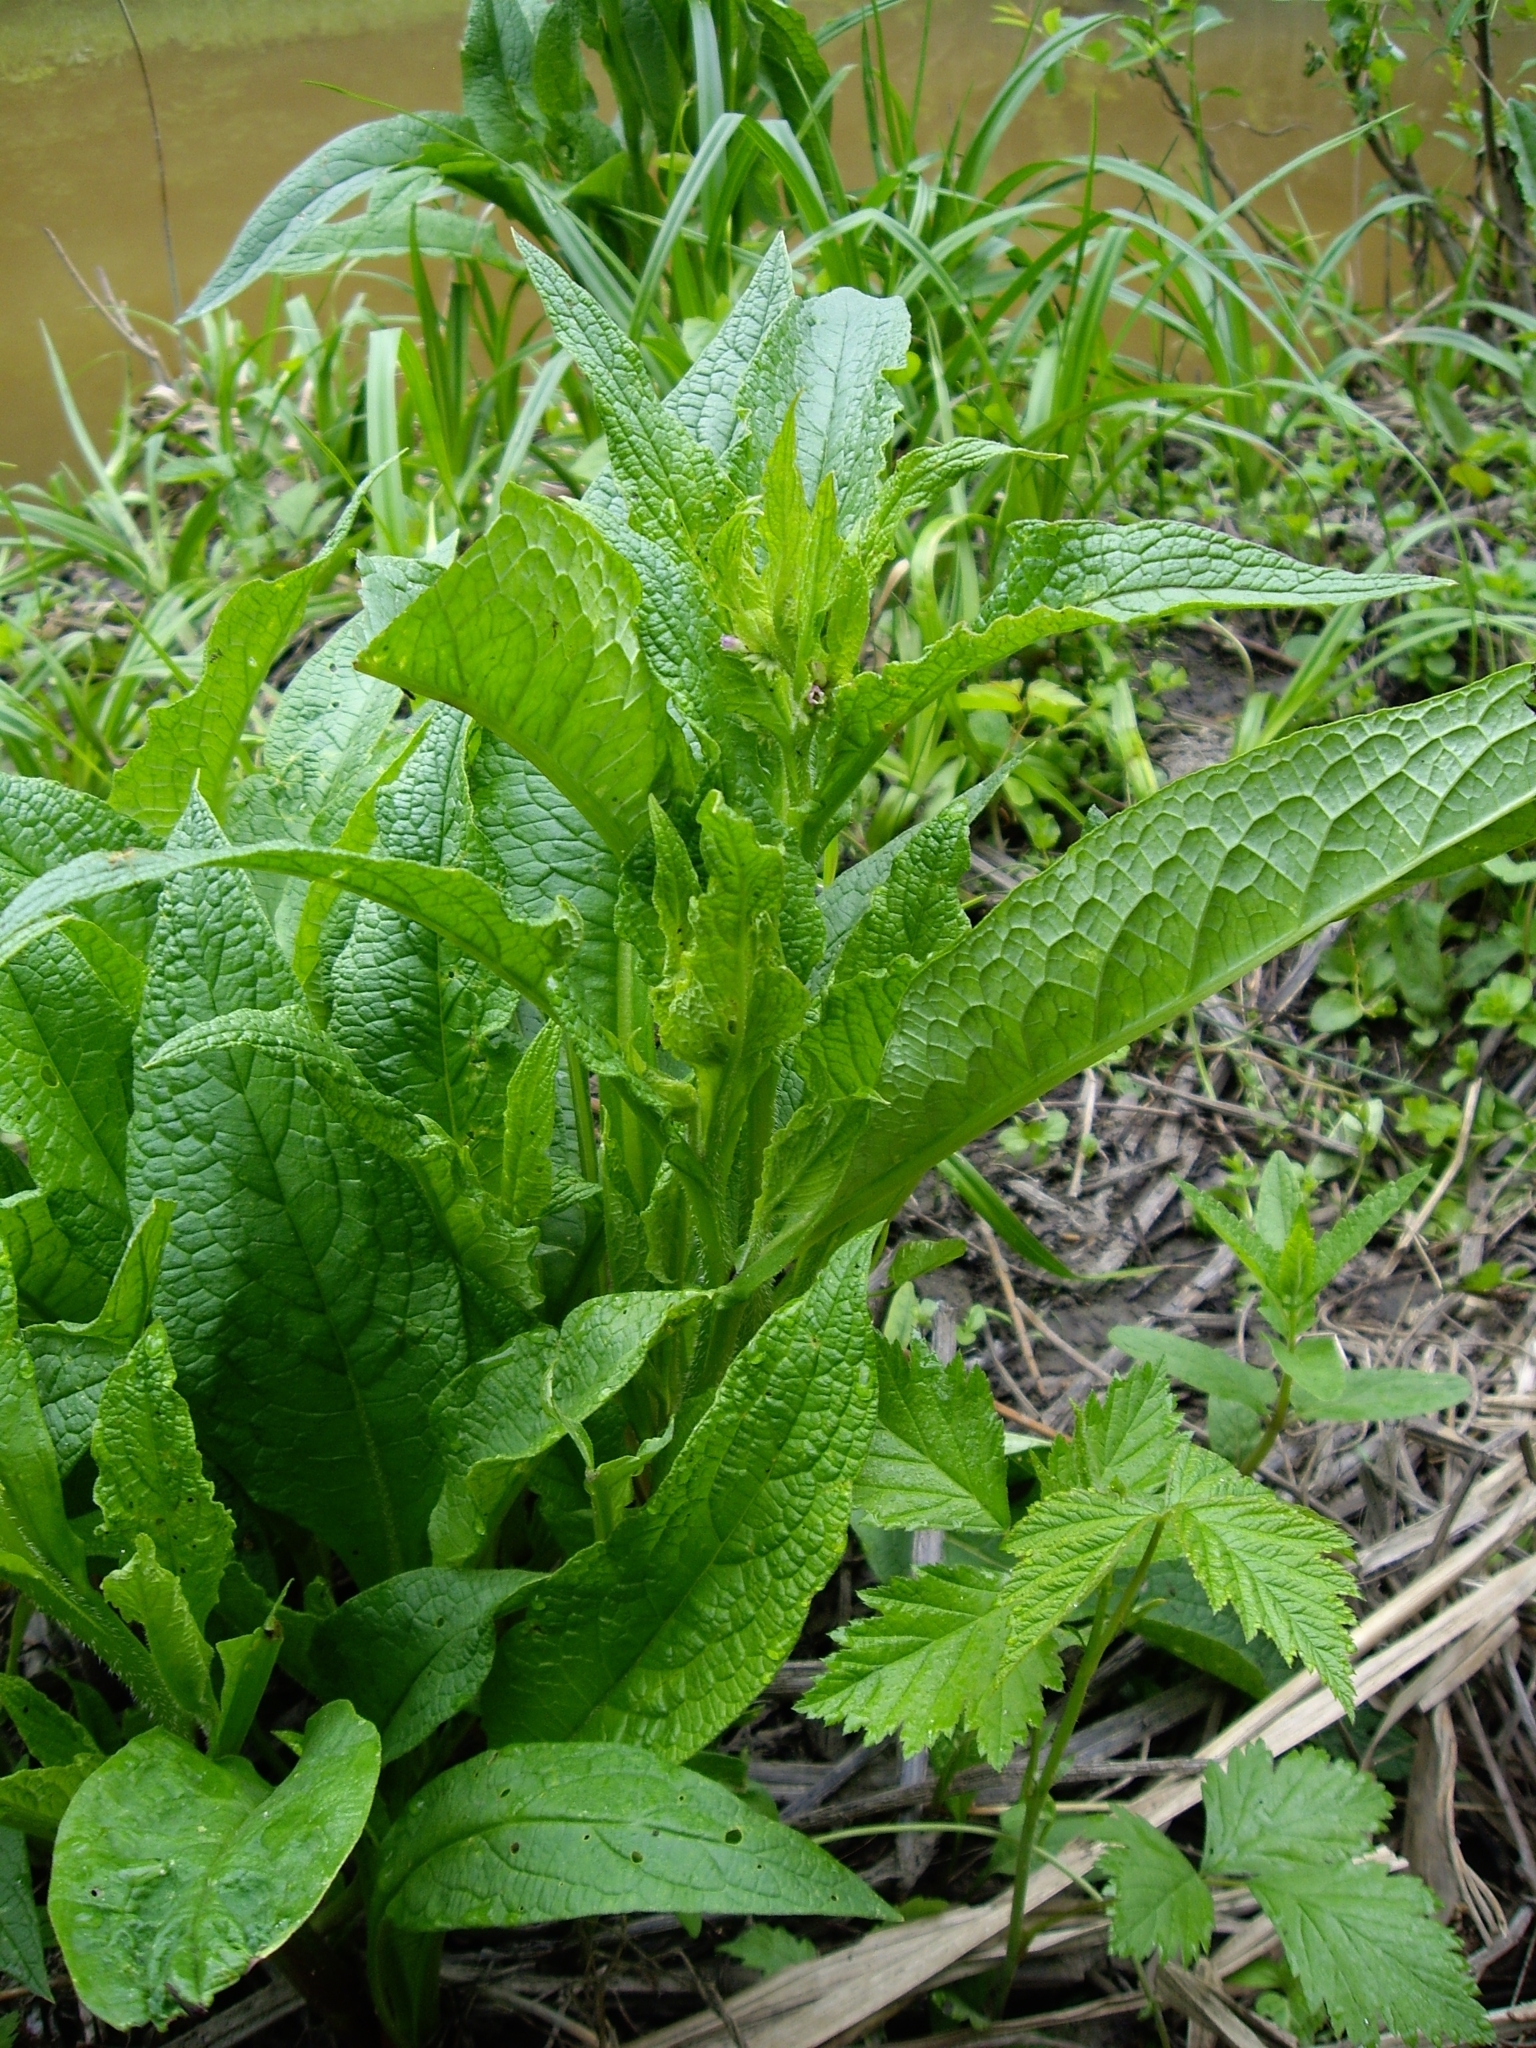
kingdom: Plantae
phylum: Tracheophyta
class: Magnoliopsida
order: Boraginales
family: Boraginaceae
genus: Symphytum
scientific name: Symphytum officinale
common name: Common comfrey
